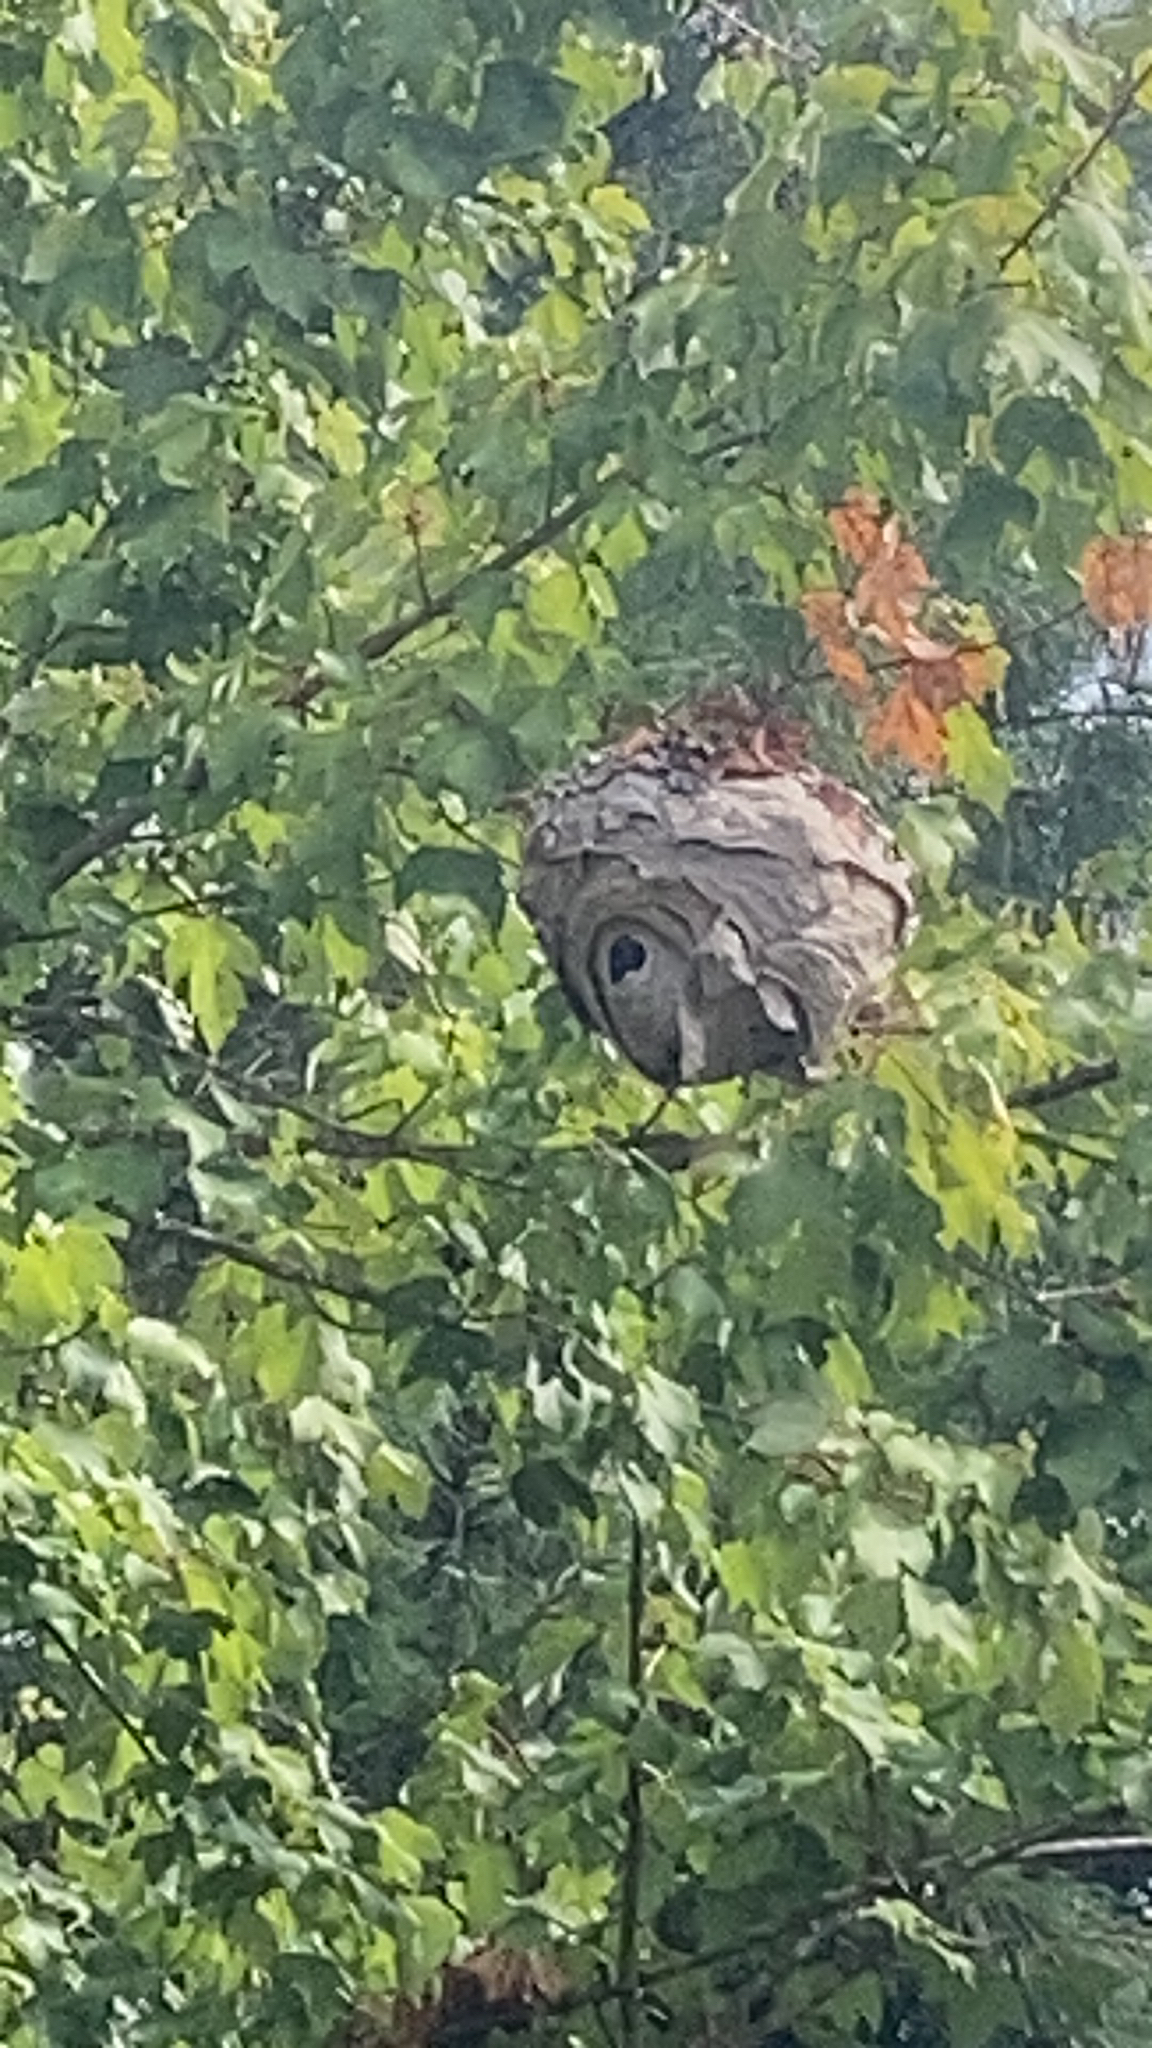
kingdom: Animalia
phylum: Arthropoda
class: Insecta
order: Hymenoptera
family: Vespidae
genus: Dolichovespula
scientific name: Dolichovespula maculata
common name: Bald-faced hornet
